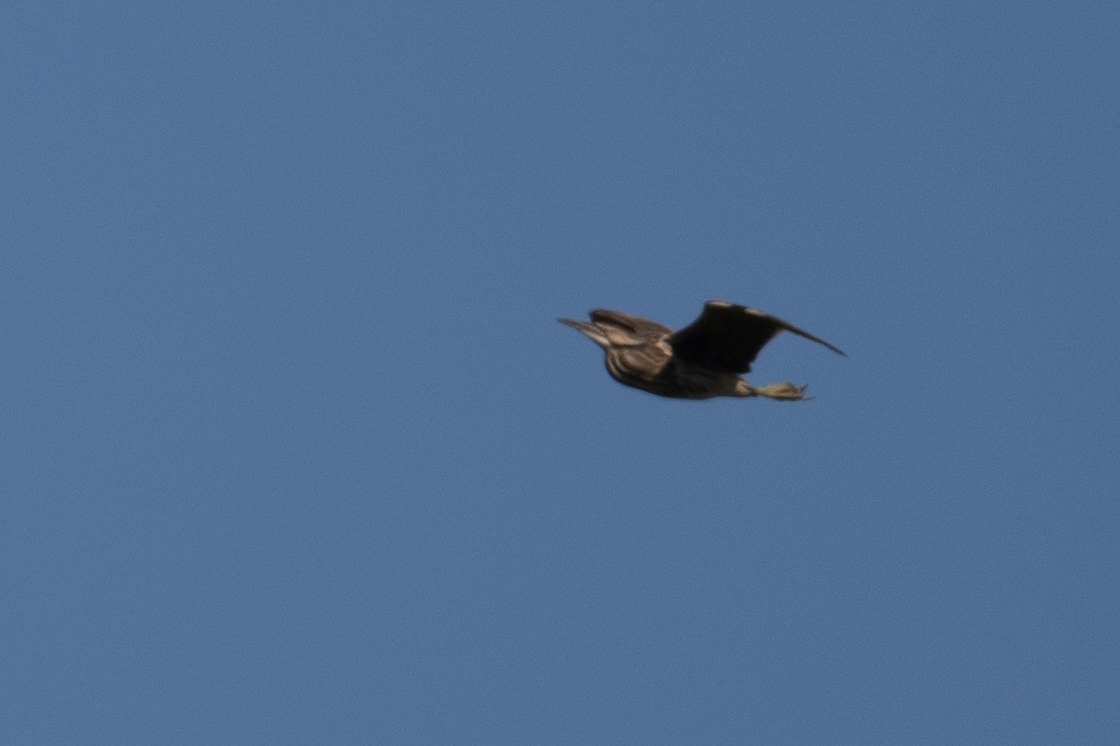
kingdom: Animalia
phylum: Chordata
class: Aves
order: Pelecaniformes
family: Ardeidae
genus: Botaurus
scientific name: Botaurus lentiginosus
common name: American bittern
